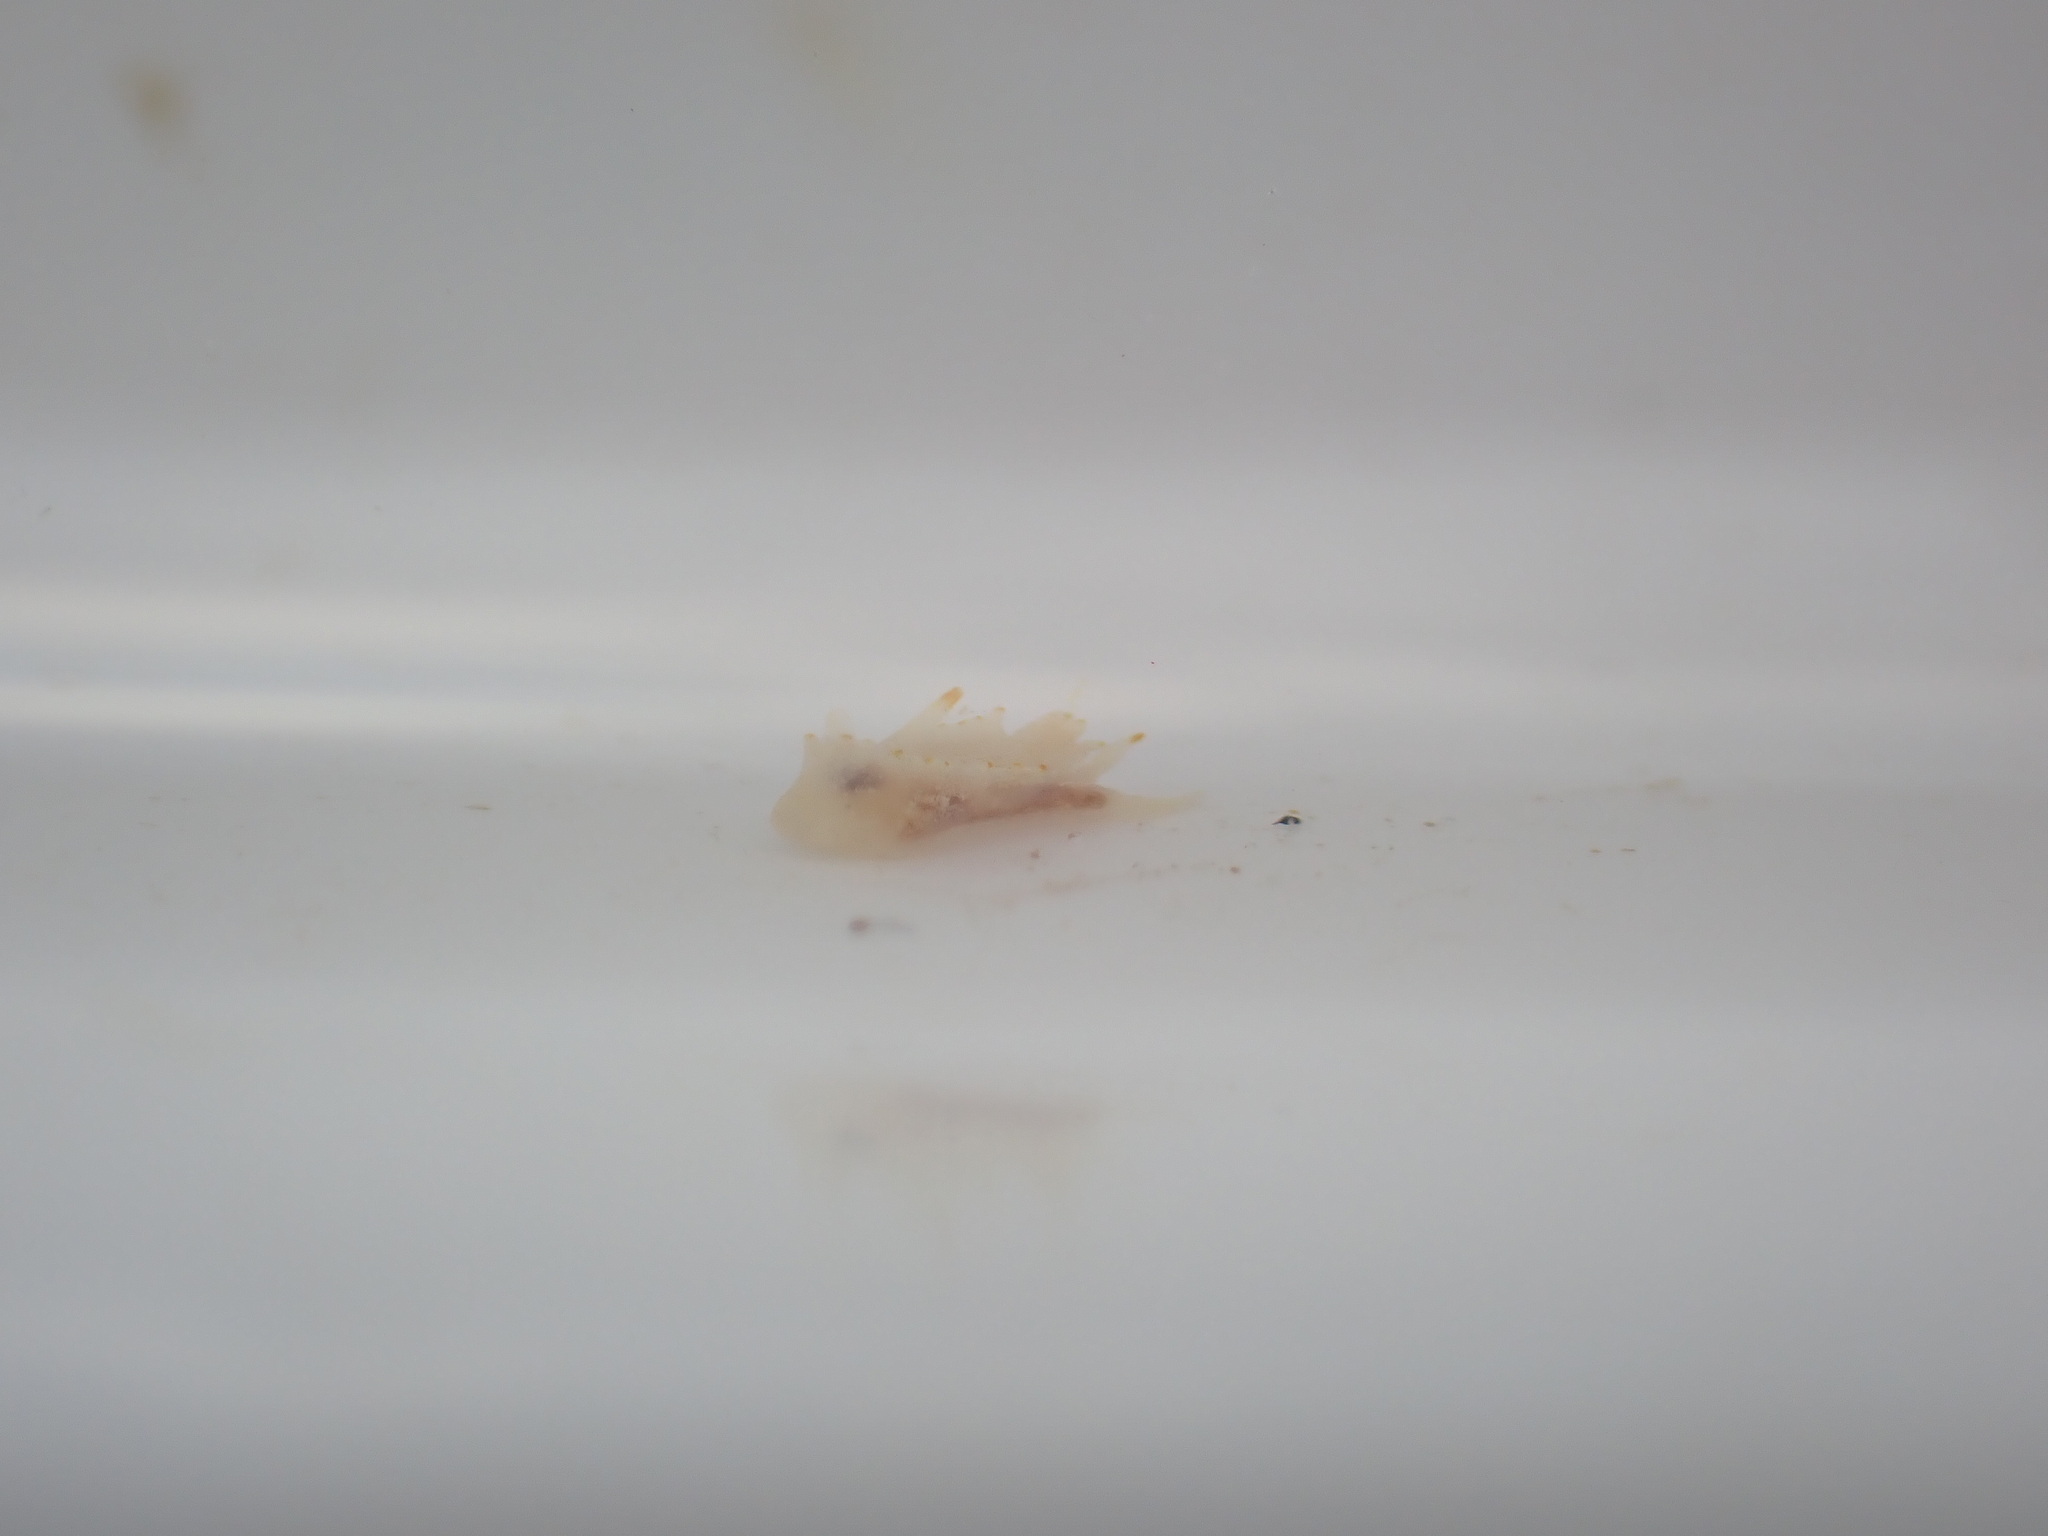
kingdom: Animalia
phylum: Mollusca
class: Gastropoda
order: Nudibranchia
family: Goniodorididae
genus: Goniodoridella
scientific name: Goniodoridella savignyi
